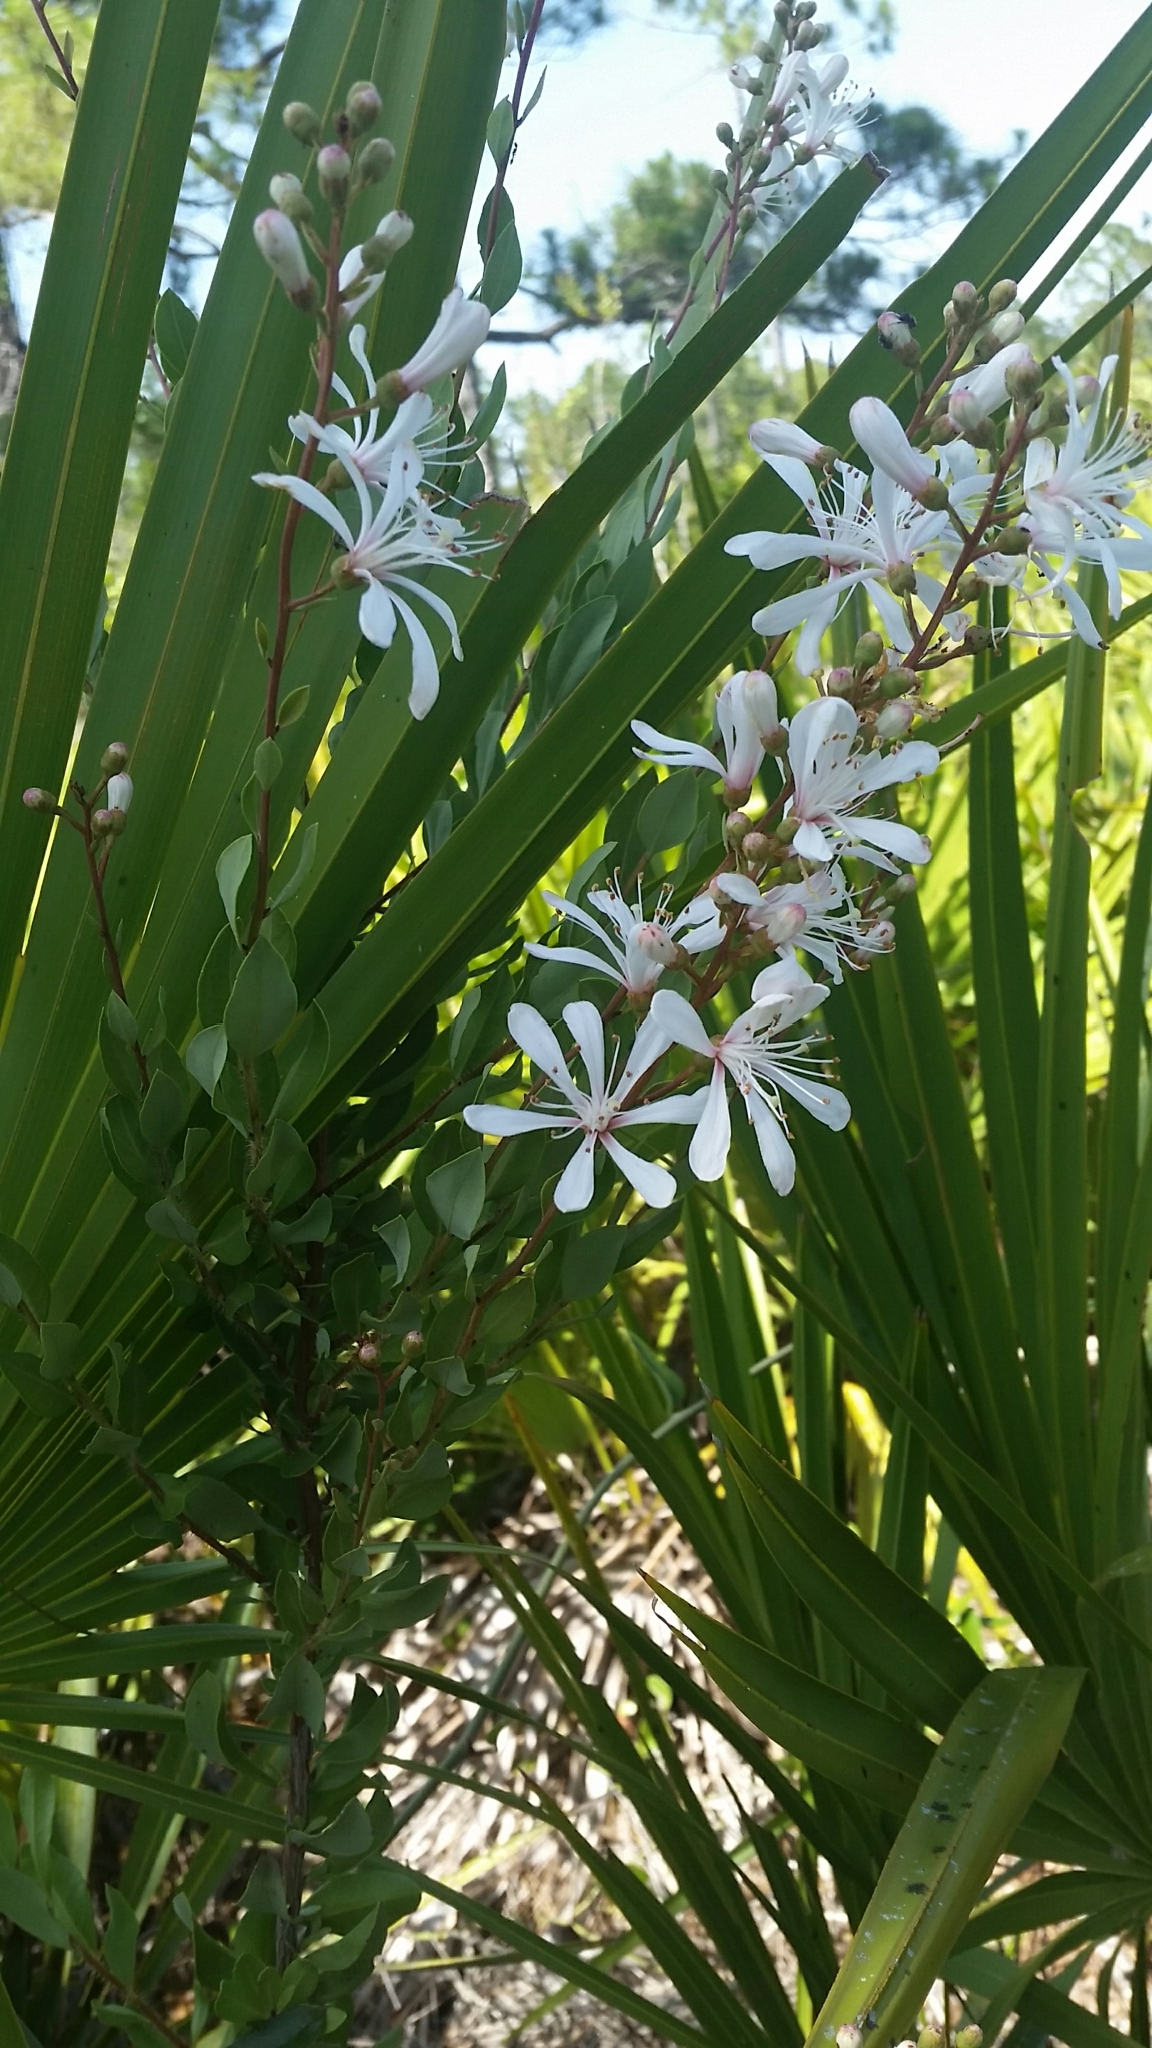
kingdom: Plantae
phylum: Tracheophyta
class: Magnoliopsida
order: Ericales
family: Ericaceae
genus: Bejaria
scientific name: Bejaria racemosa
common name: Tarflower
